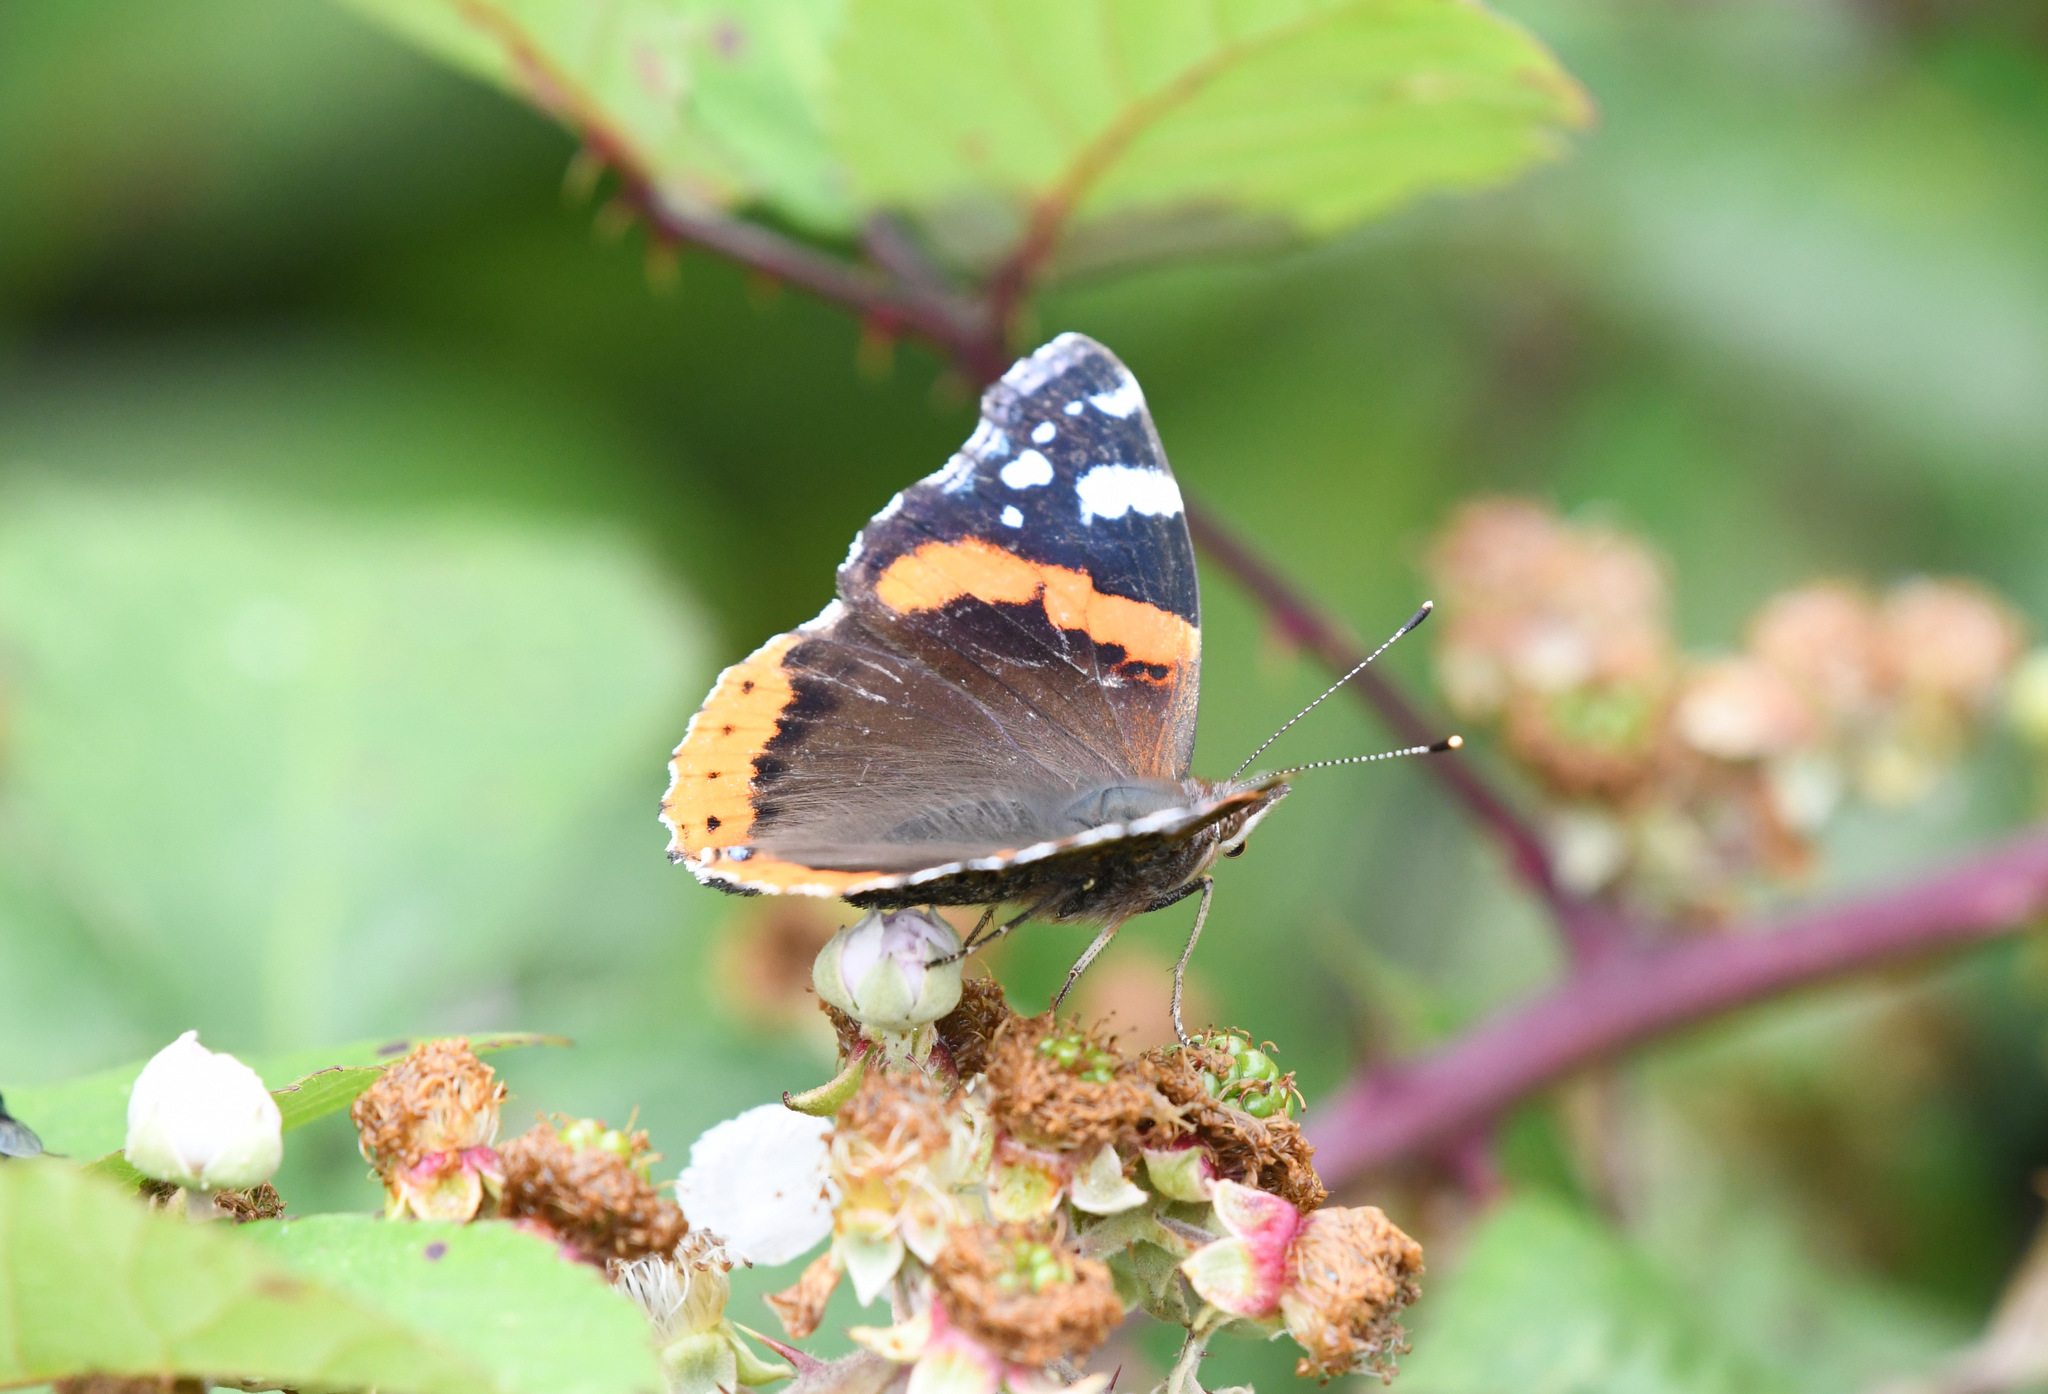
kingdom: Animalia
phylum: Arthropoda
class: Insecta
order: Lepidoptera
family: Nymphalidae
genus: Vanessa
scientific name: Vanessa atalanta
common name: Red admiral
